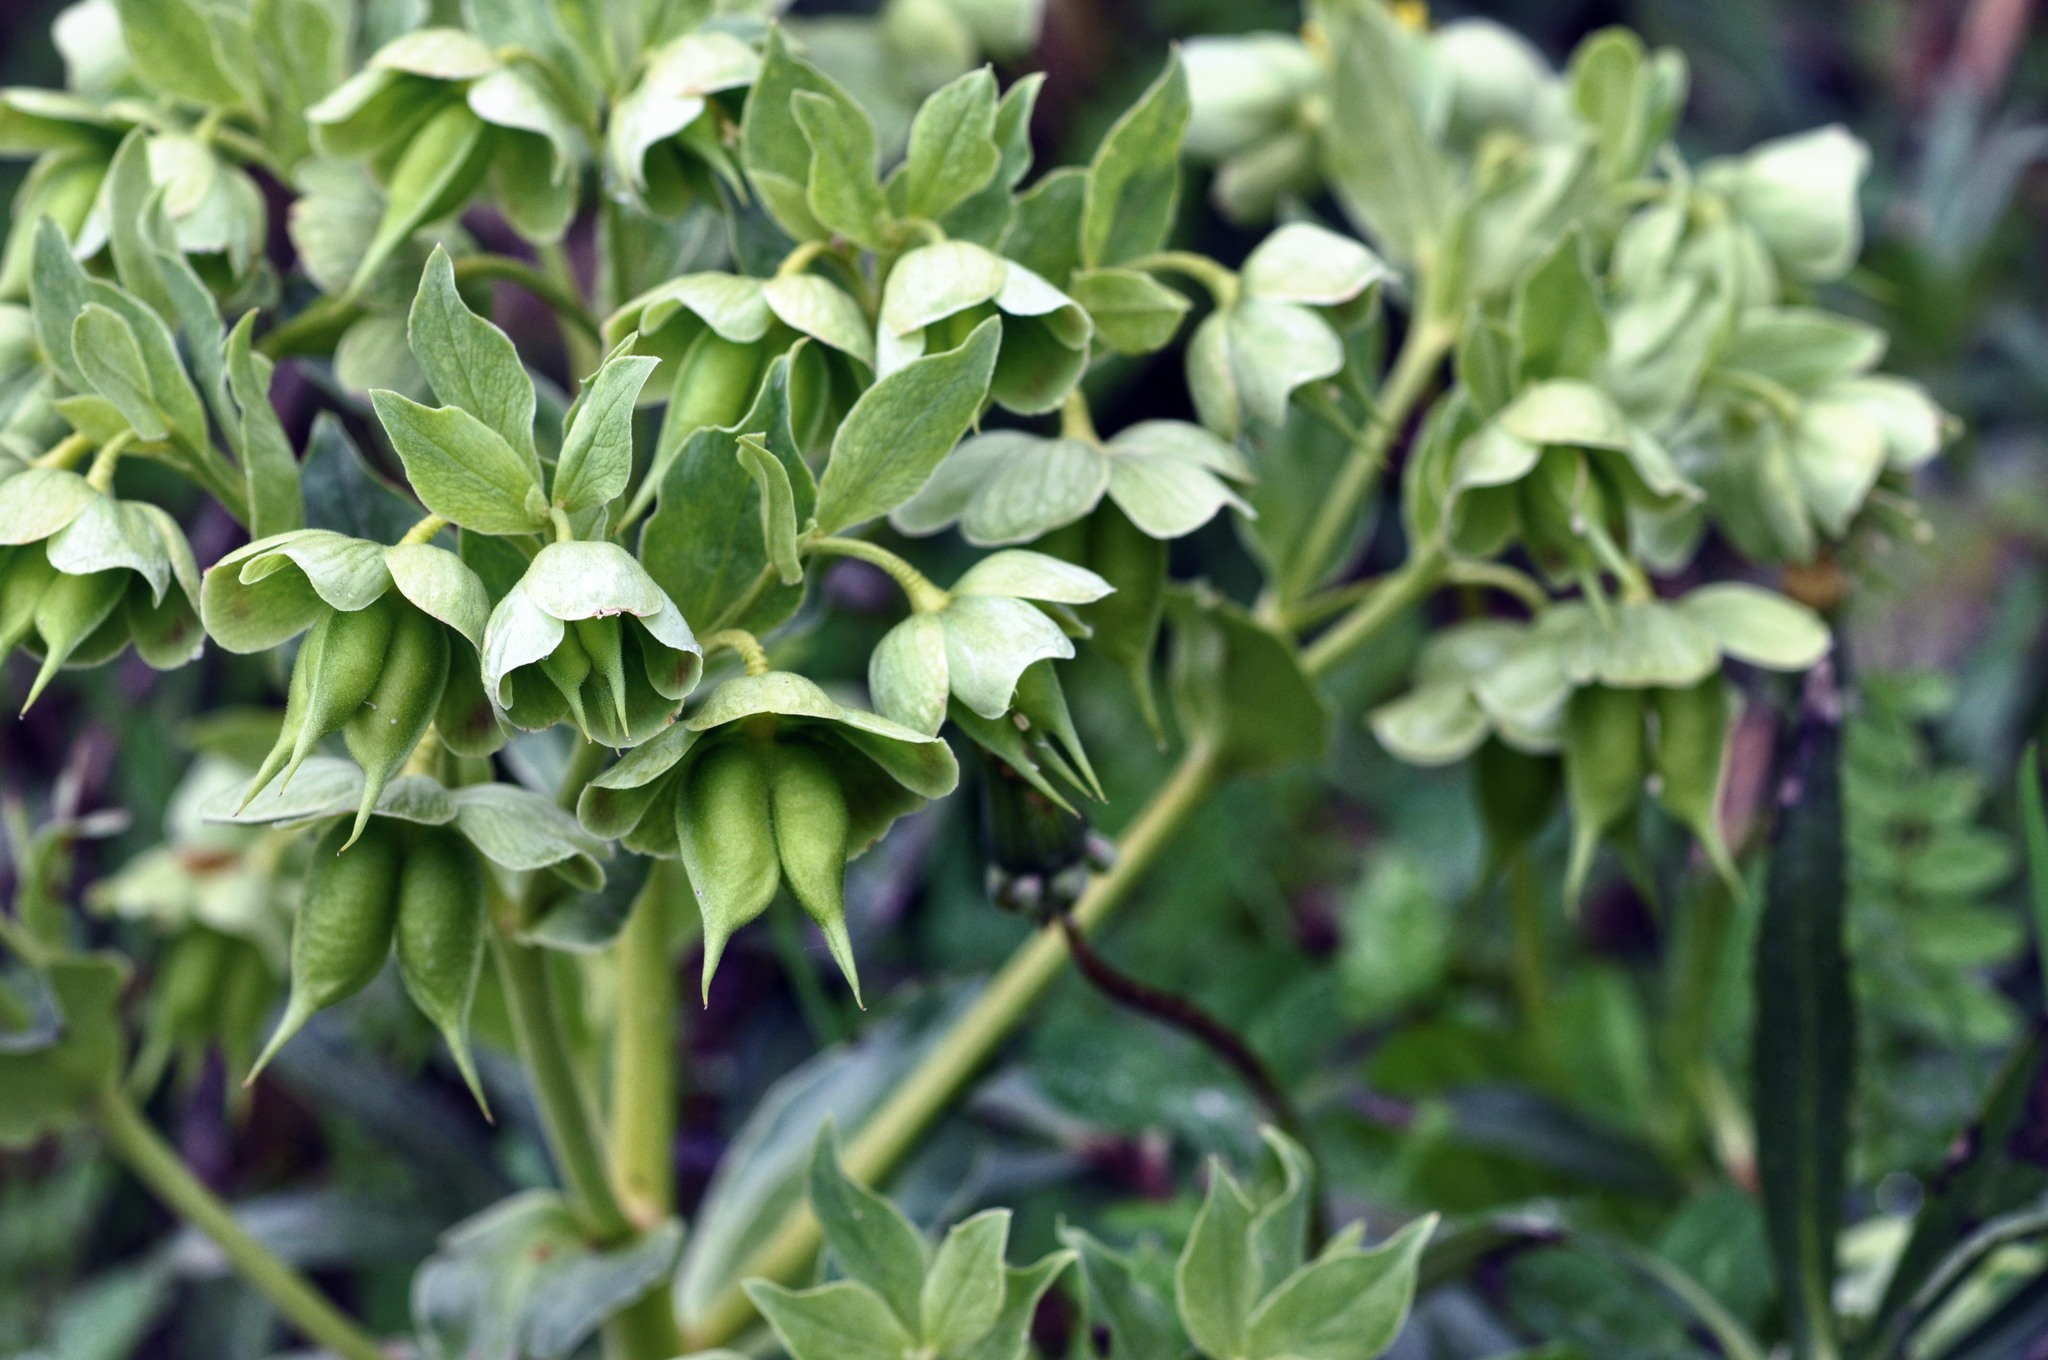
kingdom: Plantae
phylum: Tracheophyta
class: Magnoliopsida
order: Ranunculales
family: Ranunculaceae
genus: Helleborus
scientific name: Helleborus foetidus
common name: Stinking hellebore
